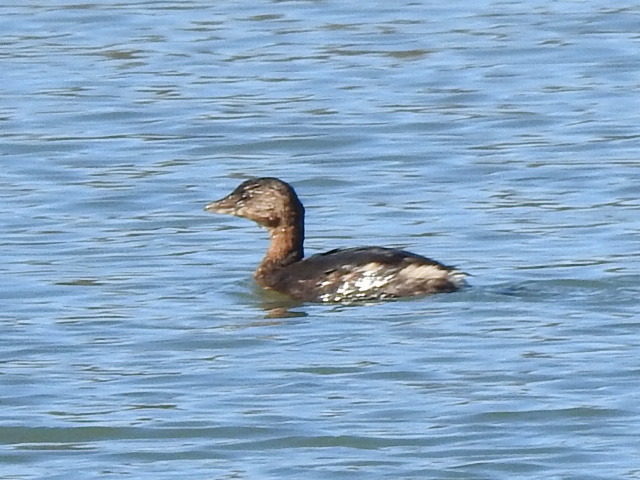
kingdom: Animalia
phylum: Chordata
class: Aves
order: Podicipediformes
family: Podicipedidae
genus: Podilymbus
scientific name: Podilymbus podiceps
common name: Pied-billed grebe
